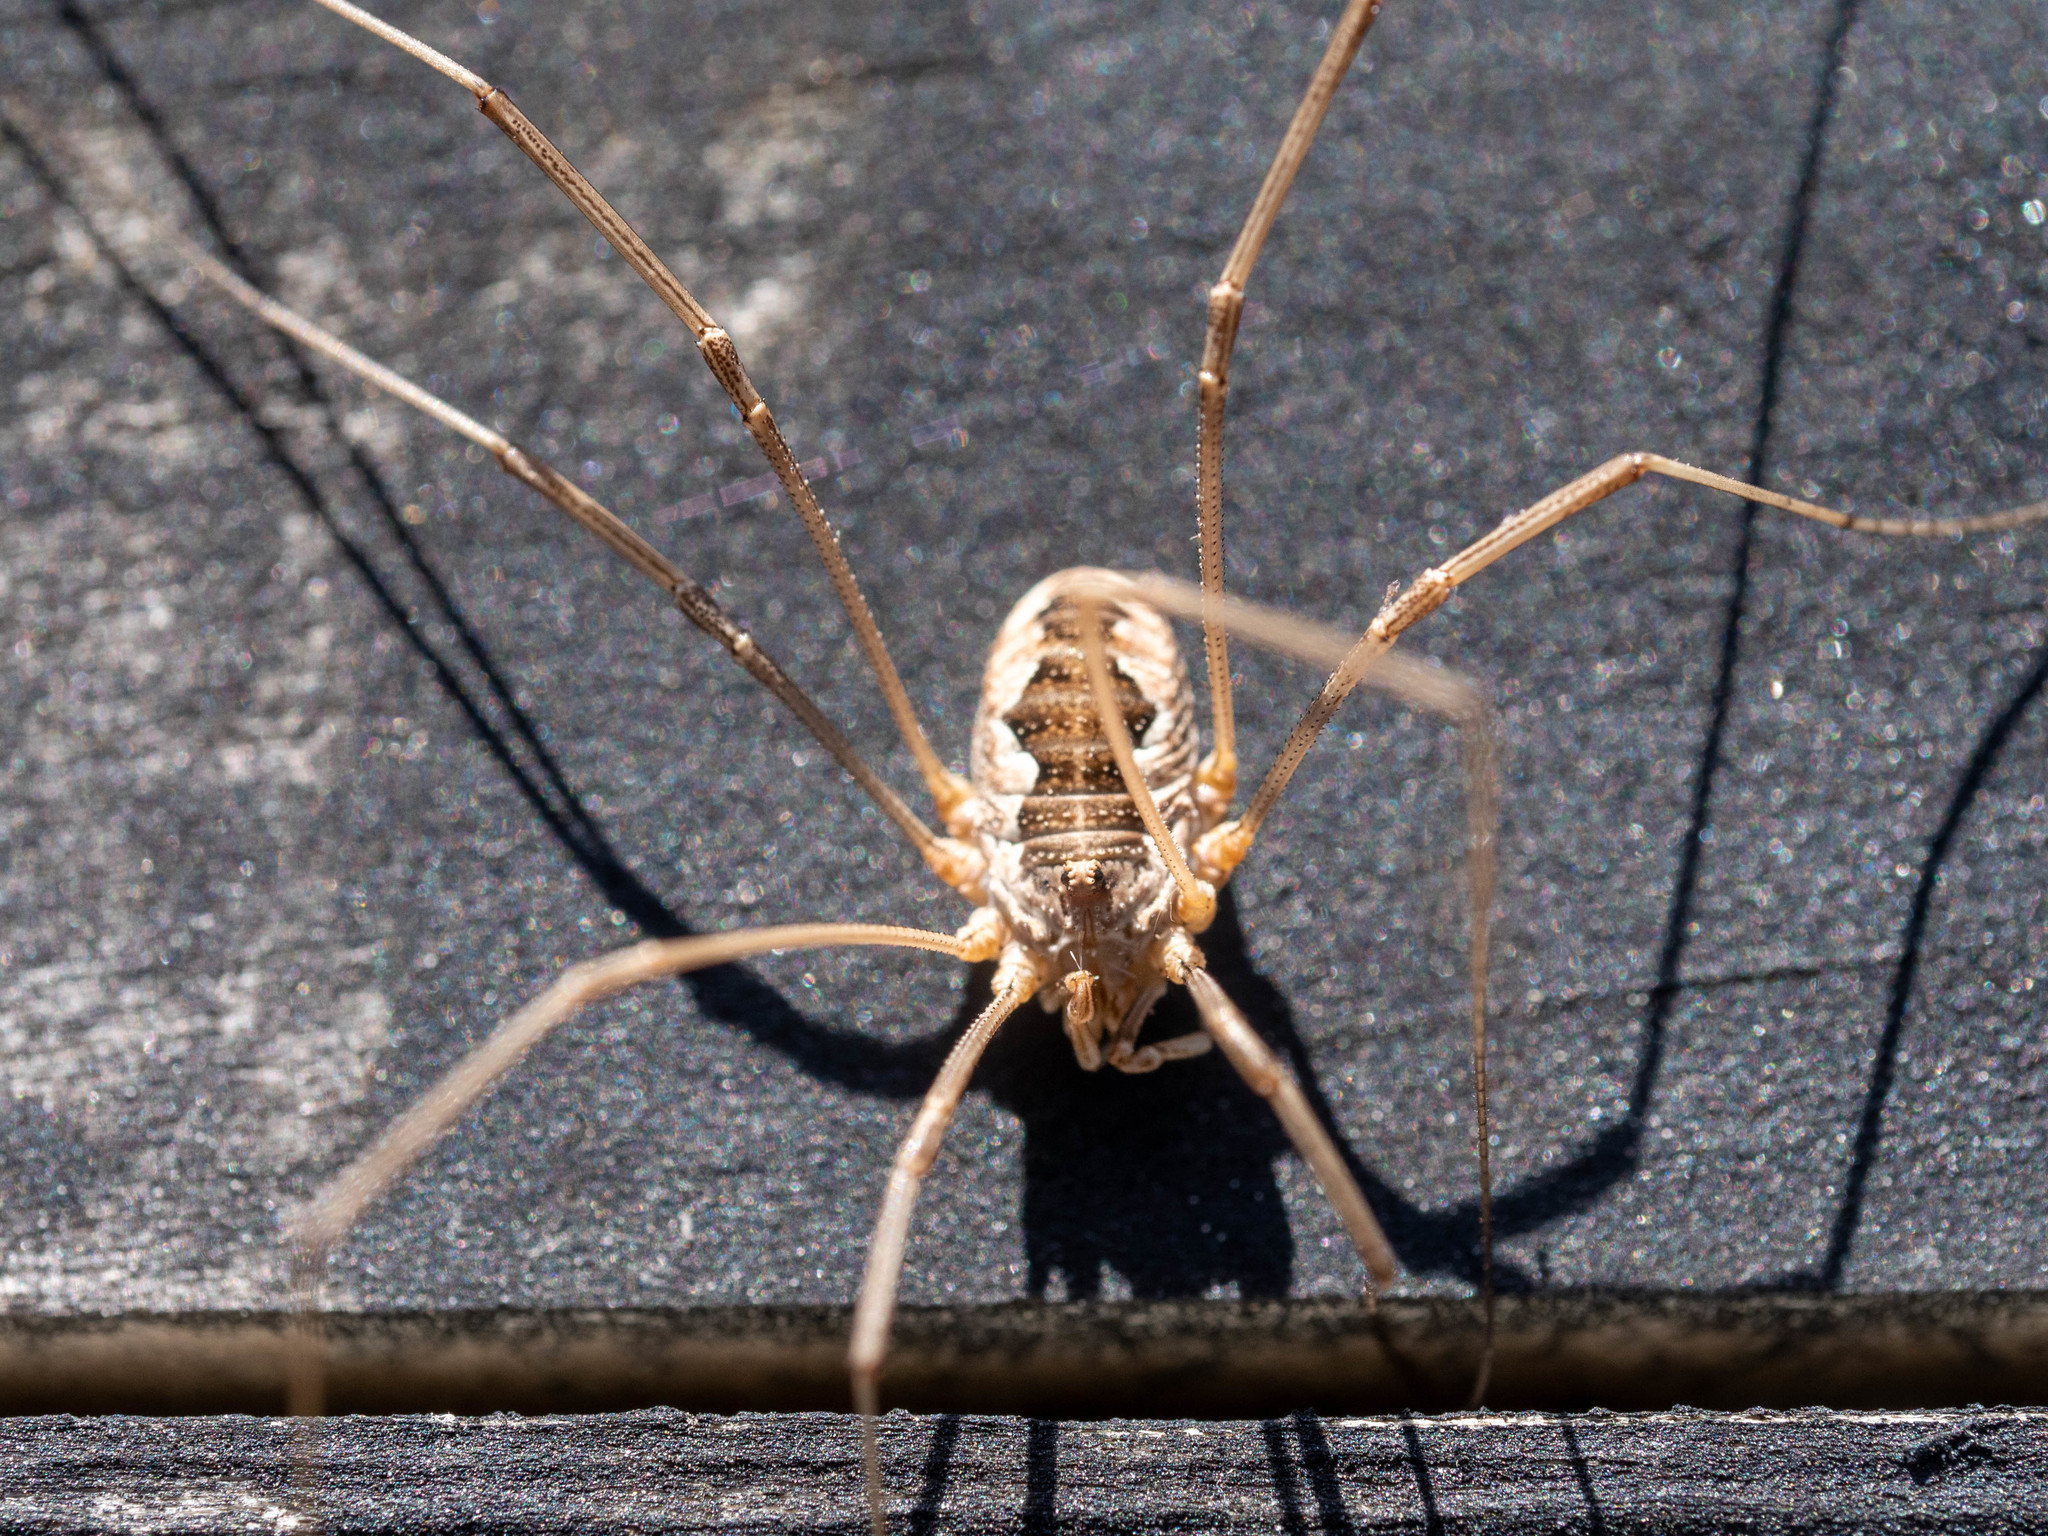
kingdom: Animalia
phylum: Arthropoda
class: Arachnida
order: Opiliones
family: Phalangiidae
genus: Phalangium
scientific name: Phalangium opilio
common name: Daddy longleg
